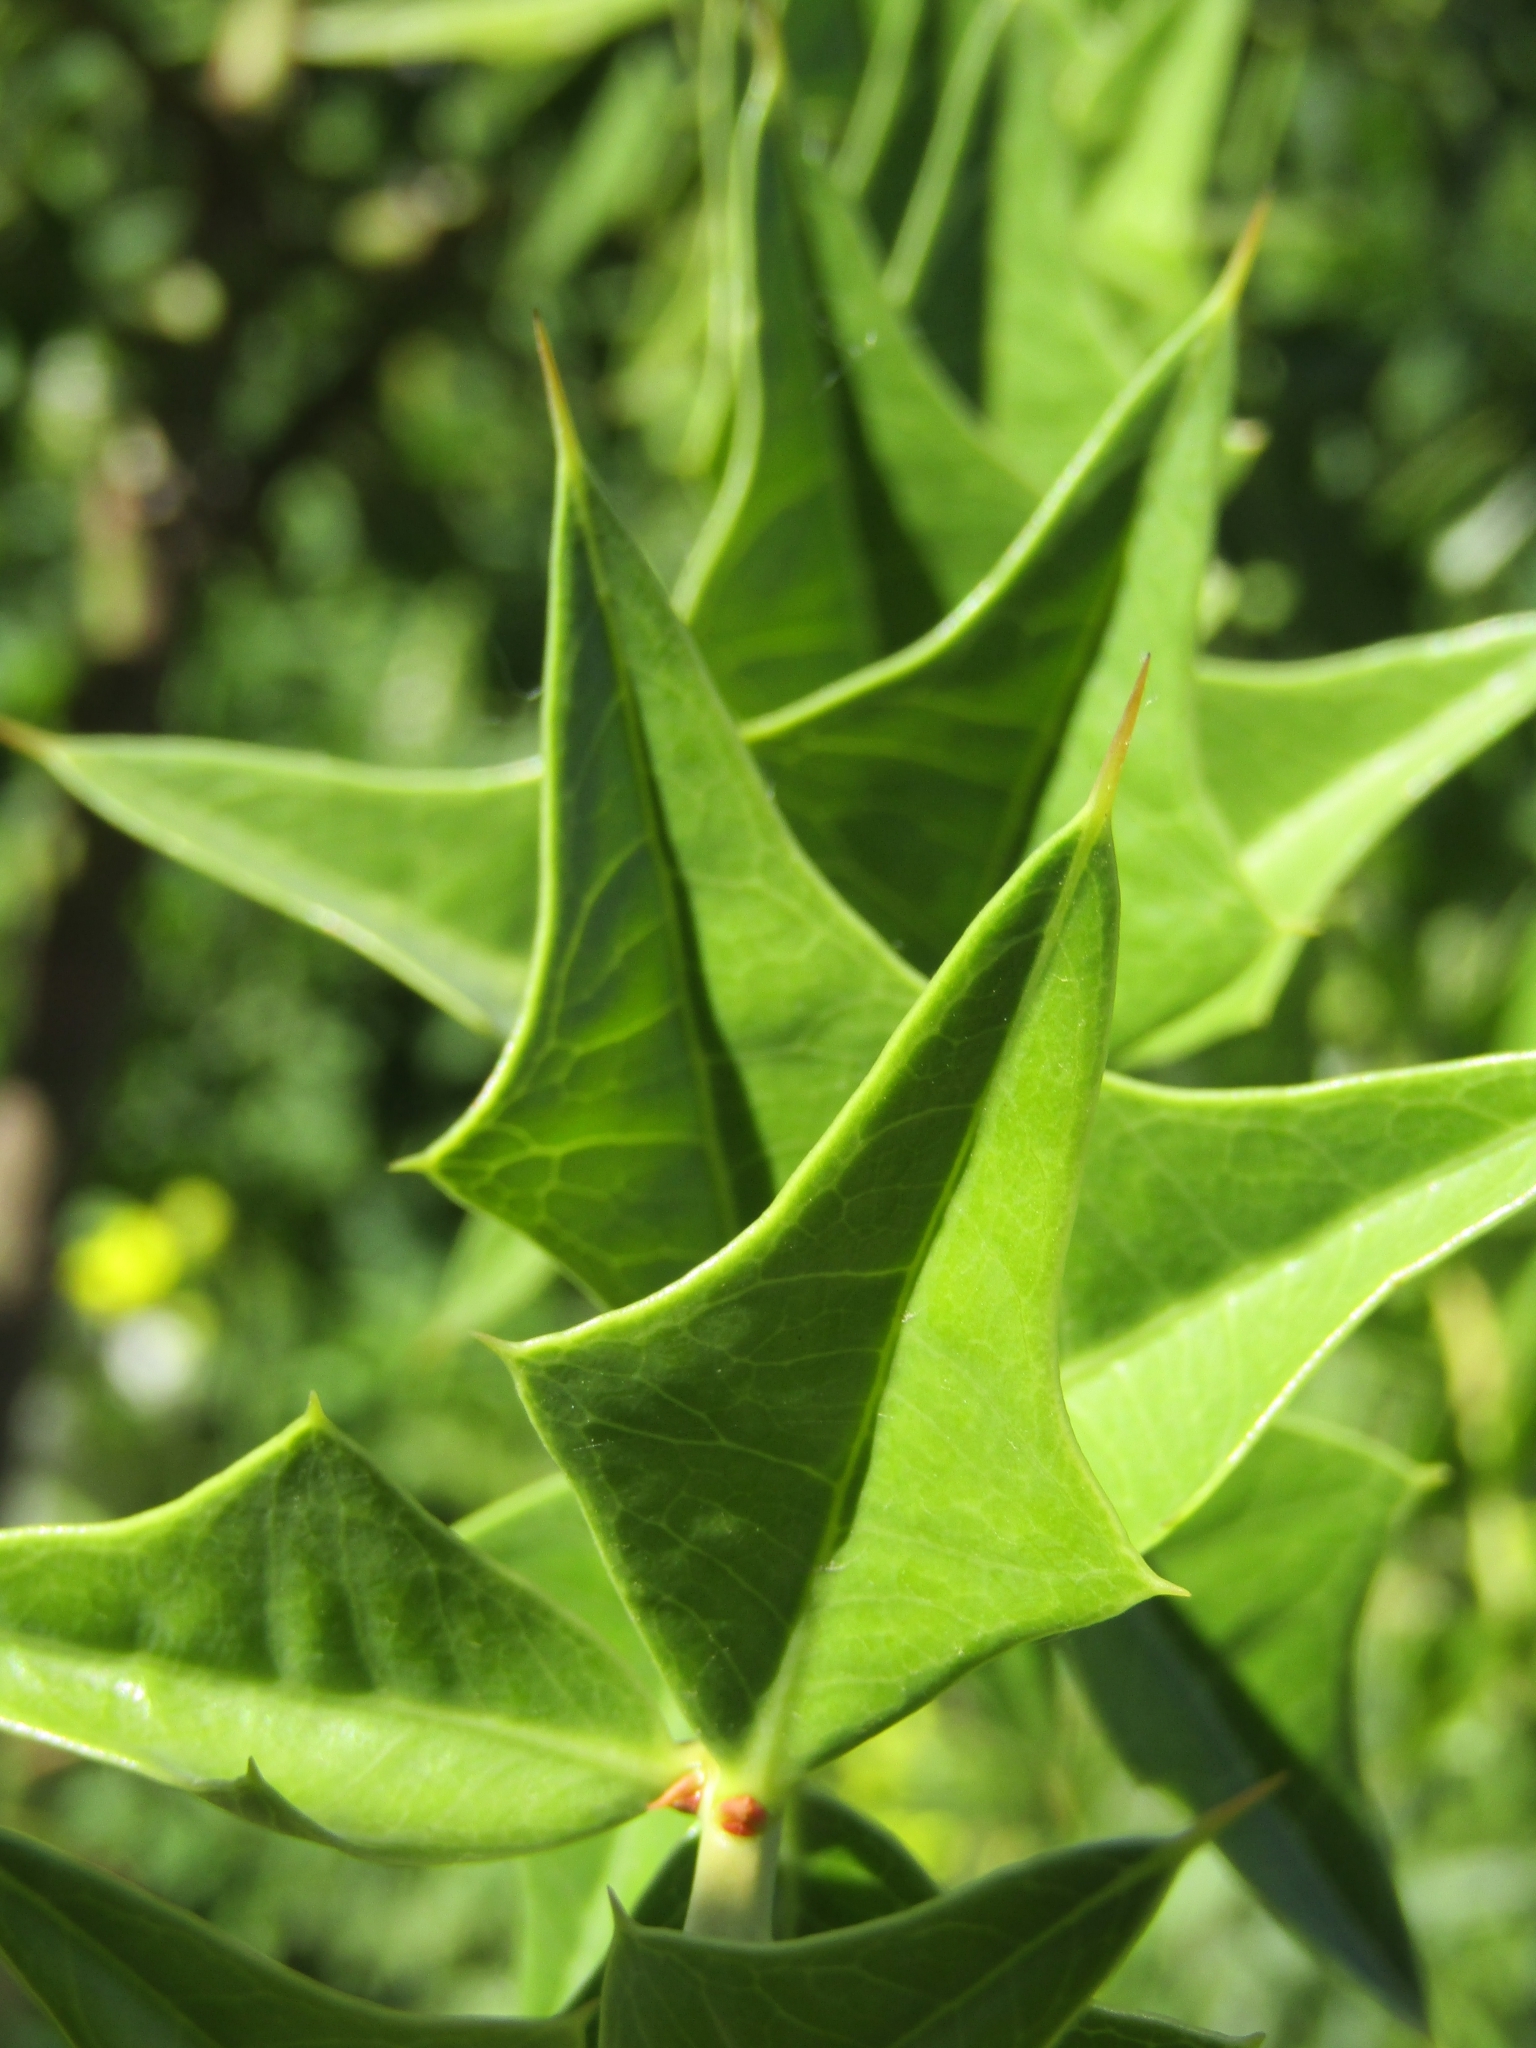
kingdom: Plantae
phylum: Tracheophyta
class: Magnoliopsida
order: Santalales
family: Cervantesiaceae
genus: Jodina
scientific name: Jodina rhombifolia
